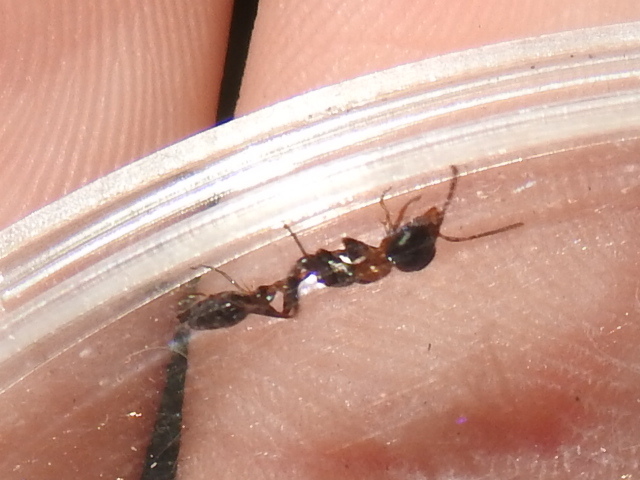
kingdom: Animalia
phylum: Arthropoda
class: Insecta
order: Hymenoptera
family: Formicidae
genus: Pseudomyrmex
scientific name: Pseudomyrmex gracilis
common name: Graceful twig ant
